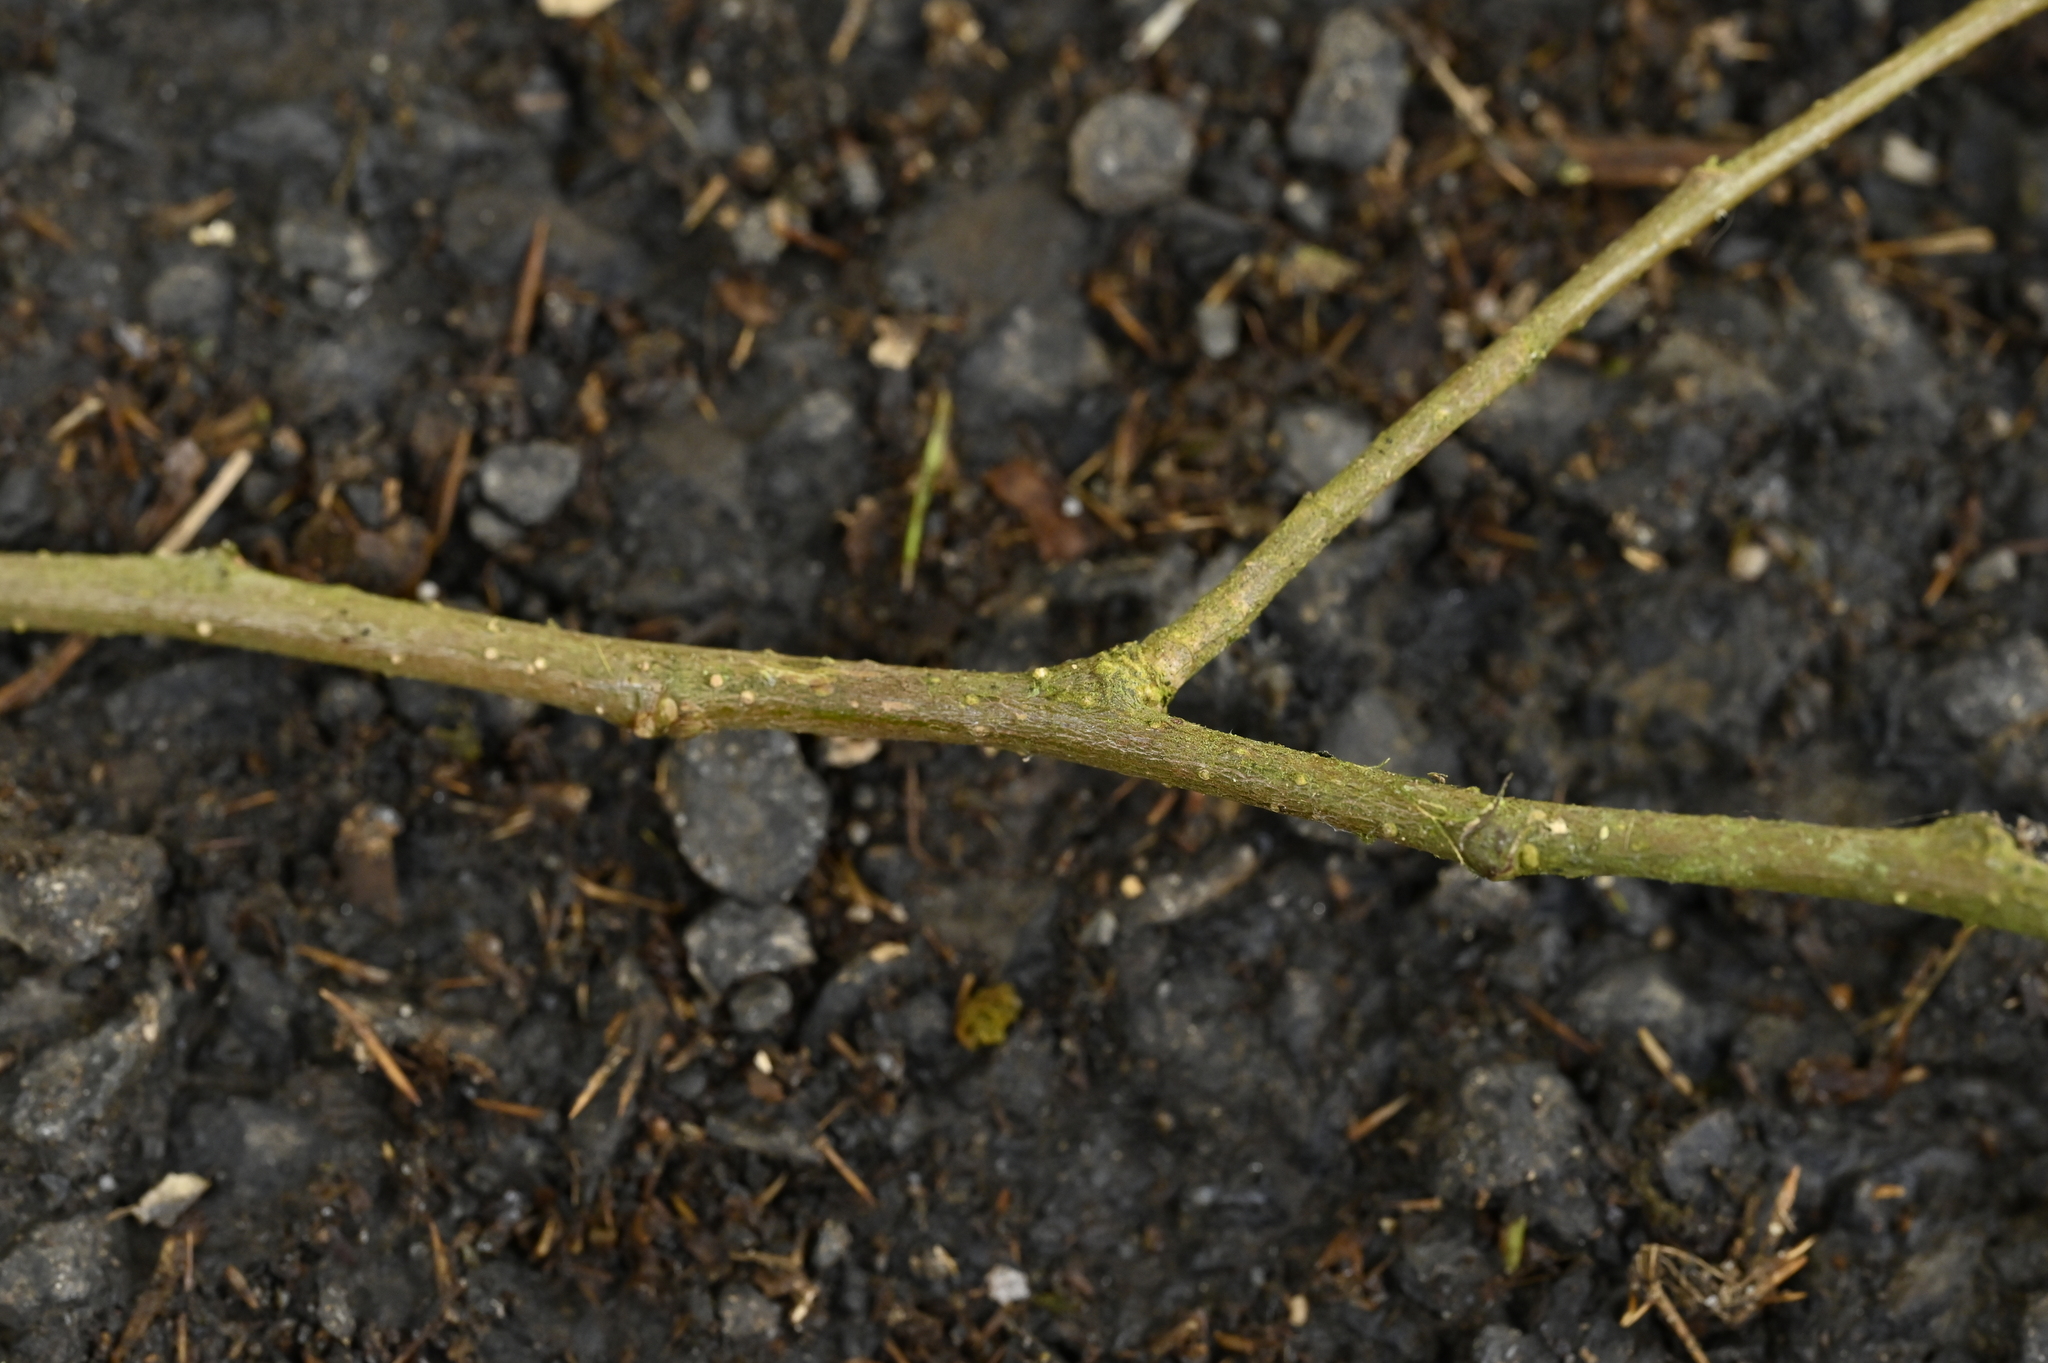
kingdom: Plantae
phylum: Tracheophyta
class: Magnoliopsida
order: Fagales
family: Fagaceae
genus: Castanopsis
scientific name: Castanopsis faberi
